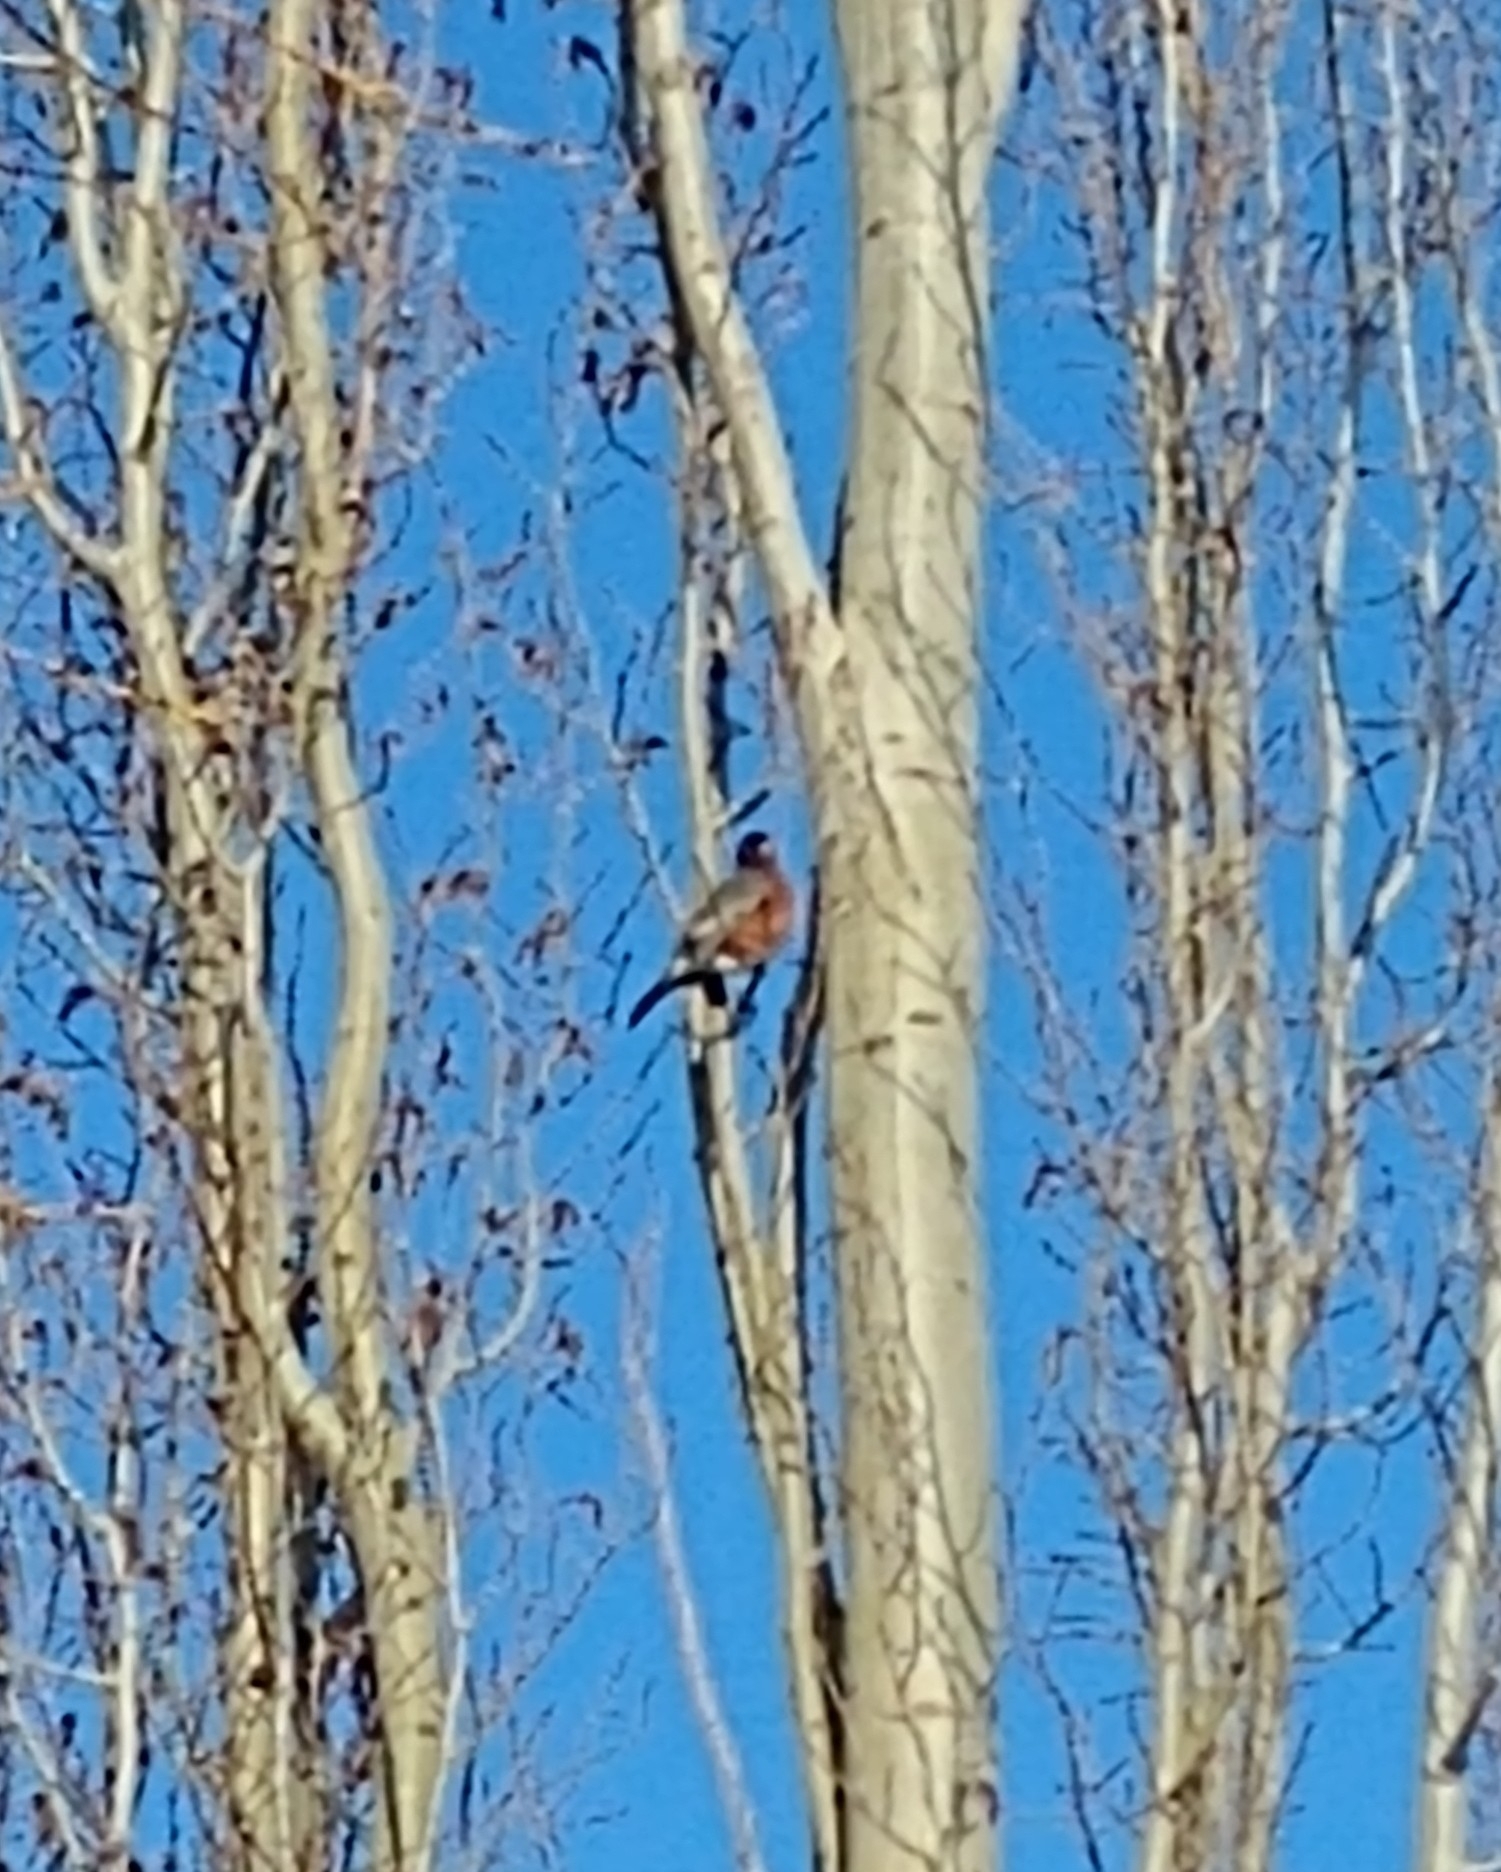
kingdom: Animalia
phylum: Chordata
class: Aves
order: Passeriformes
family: Turdidae
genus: Turdus
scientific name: Turdus migratorius
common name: American robin
